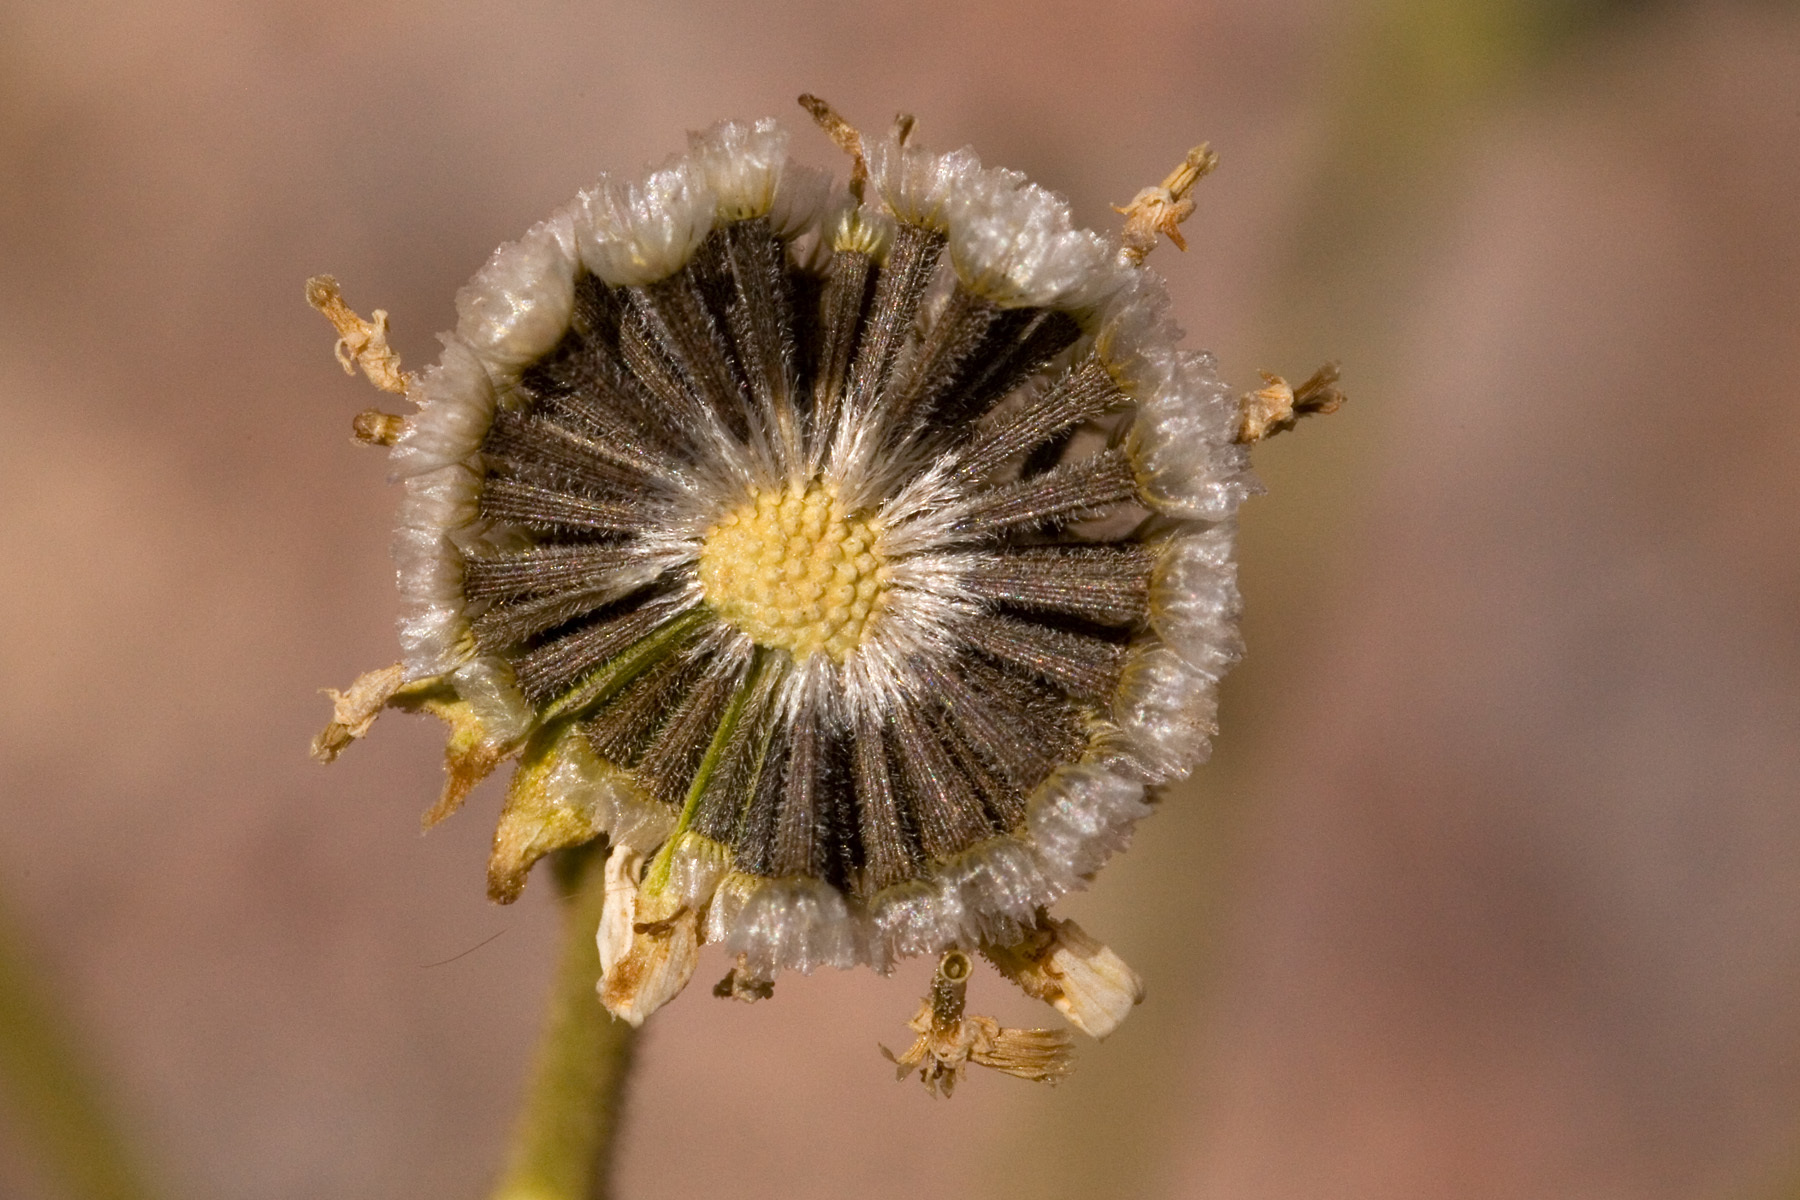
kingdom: Plantae
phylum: Tracheophyta
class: Magnoliopsida
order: Asterales
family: Asteraceae
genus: Hymenothrix
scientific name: Hymenothrix pedata
